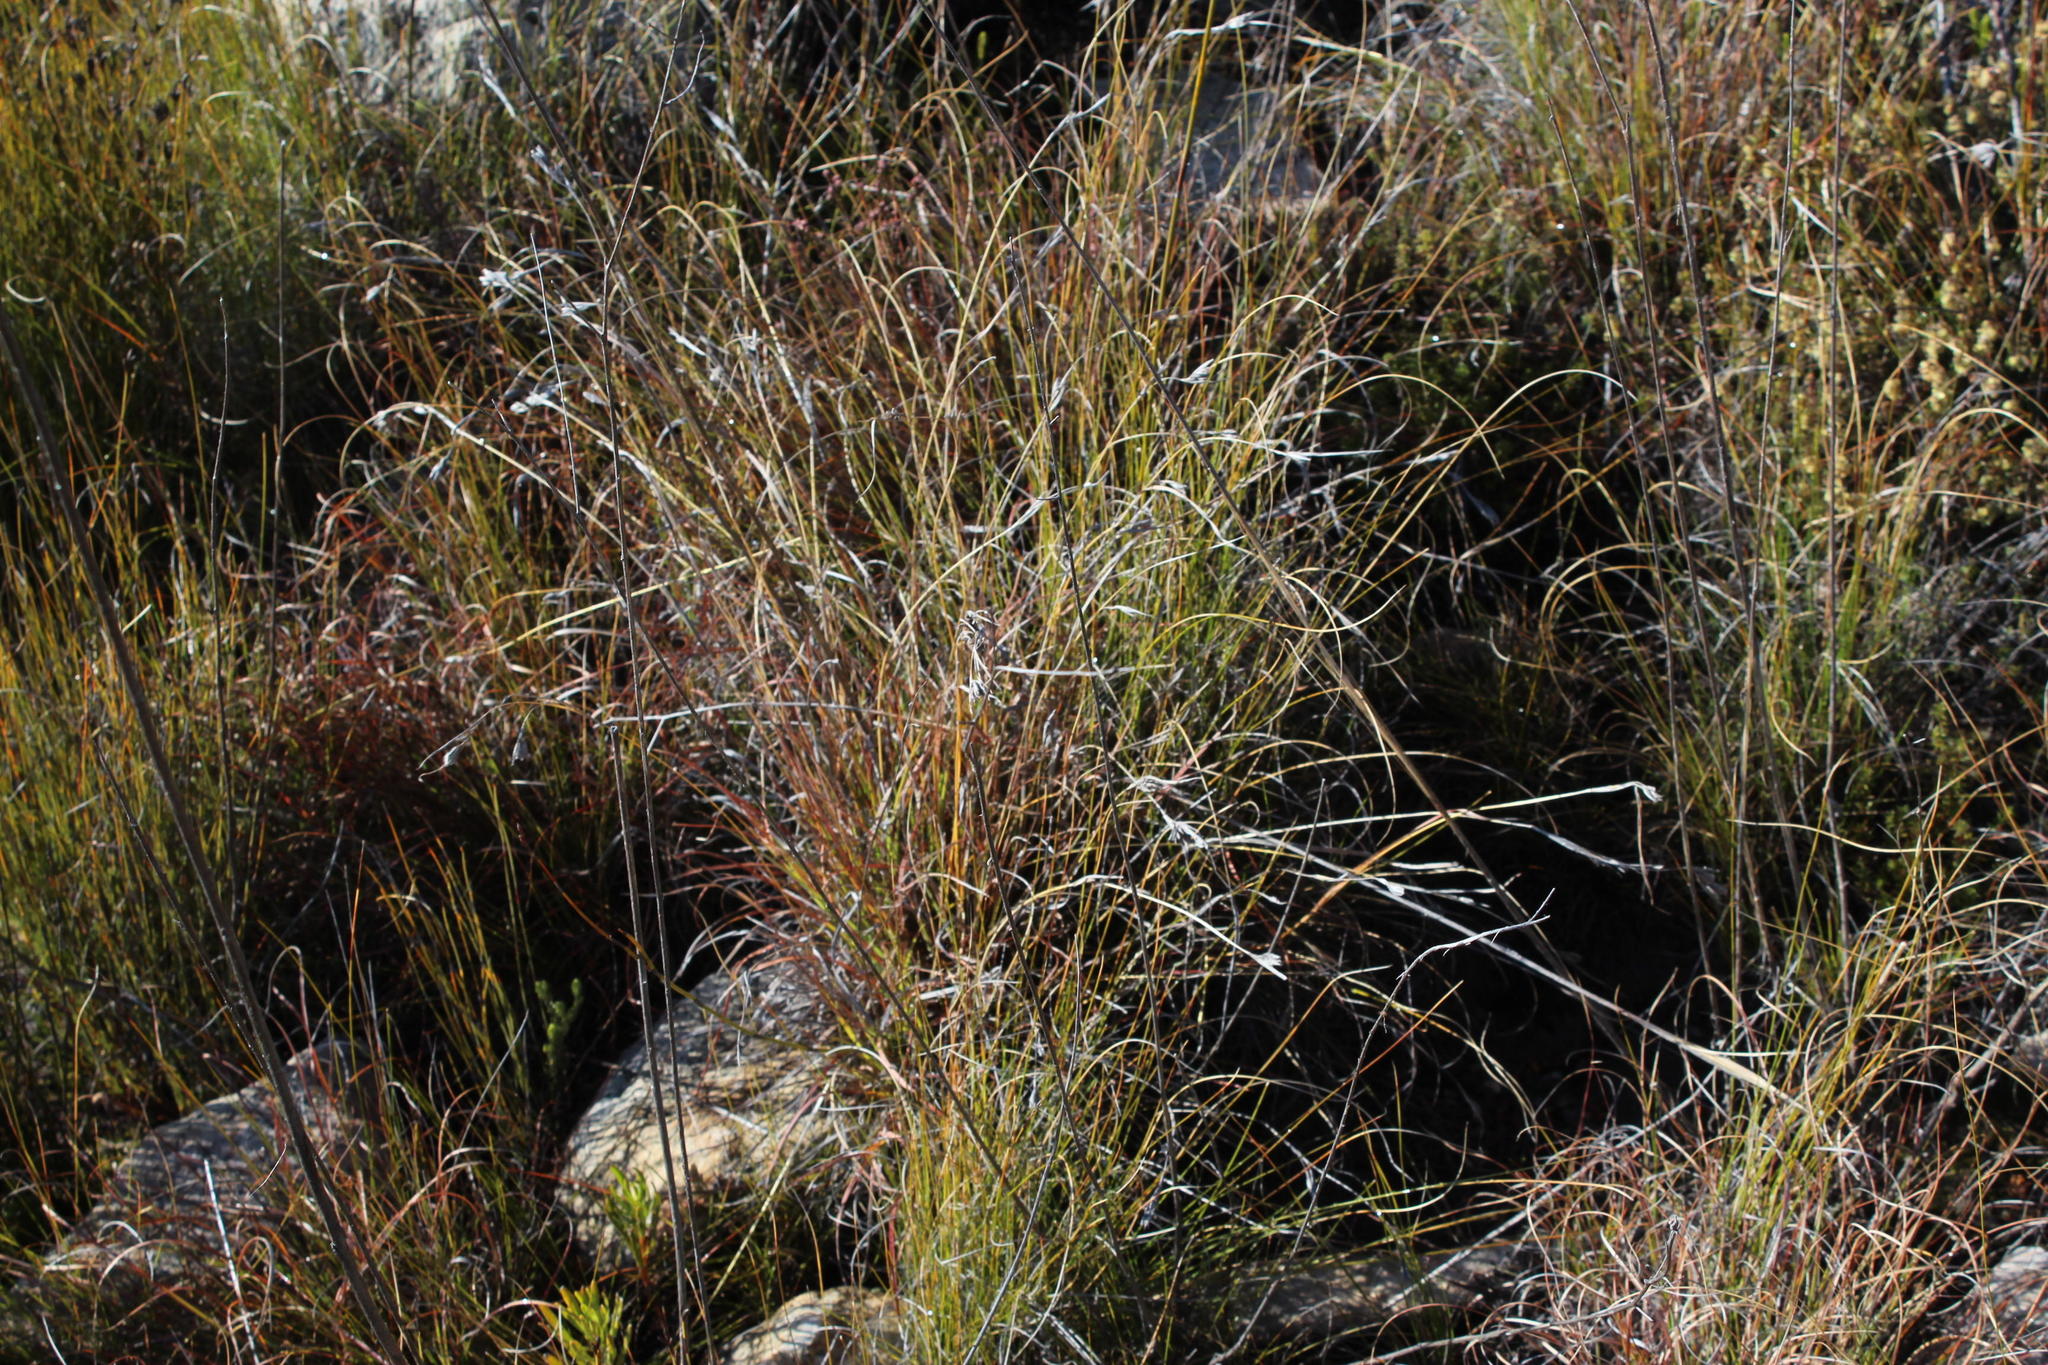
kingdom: Plantae
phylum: Tracheophyta
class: Liliopsida
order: Poales
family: Poaceae
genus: Themeda
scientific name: Themeda triandra
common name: Kangaroo grass
